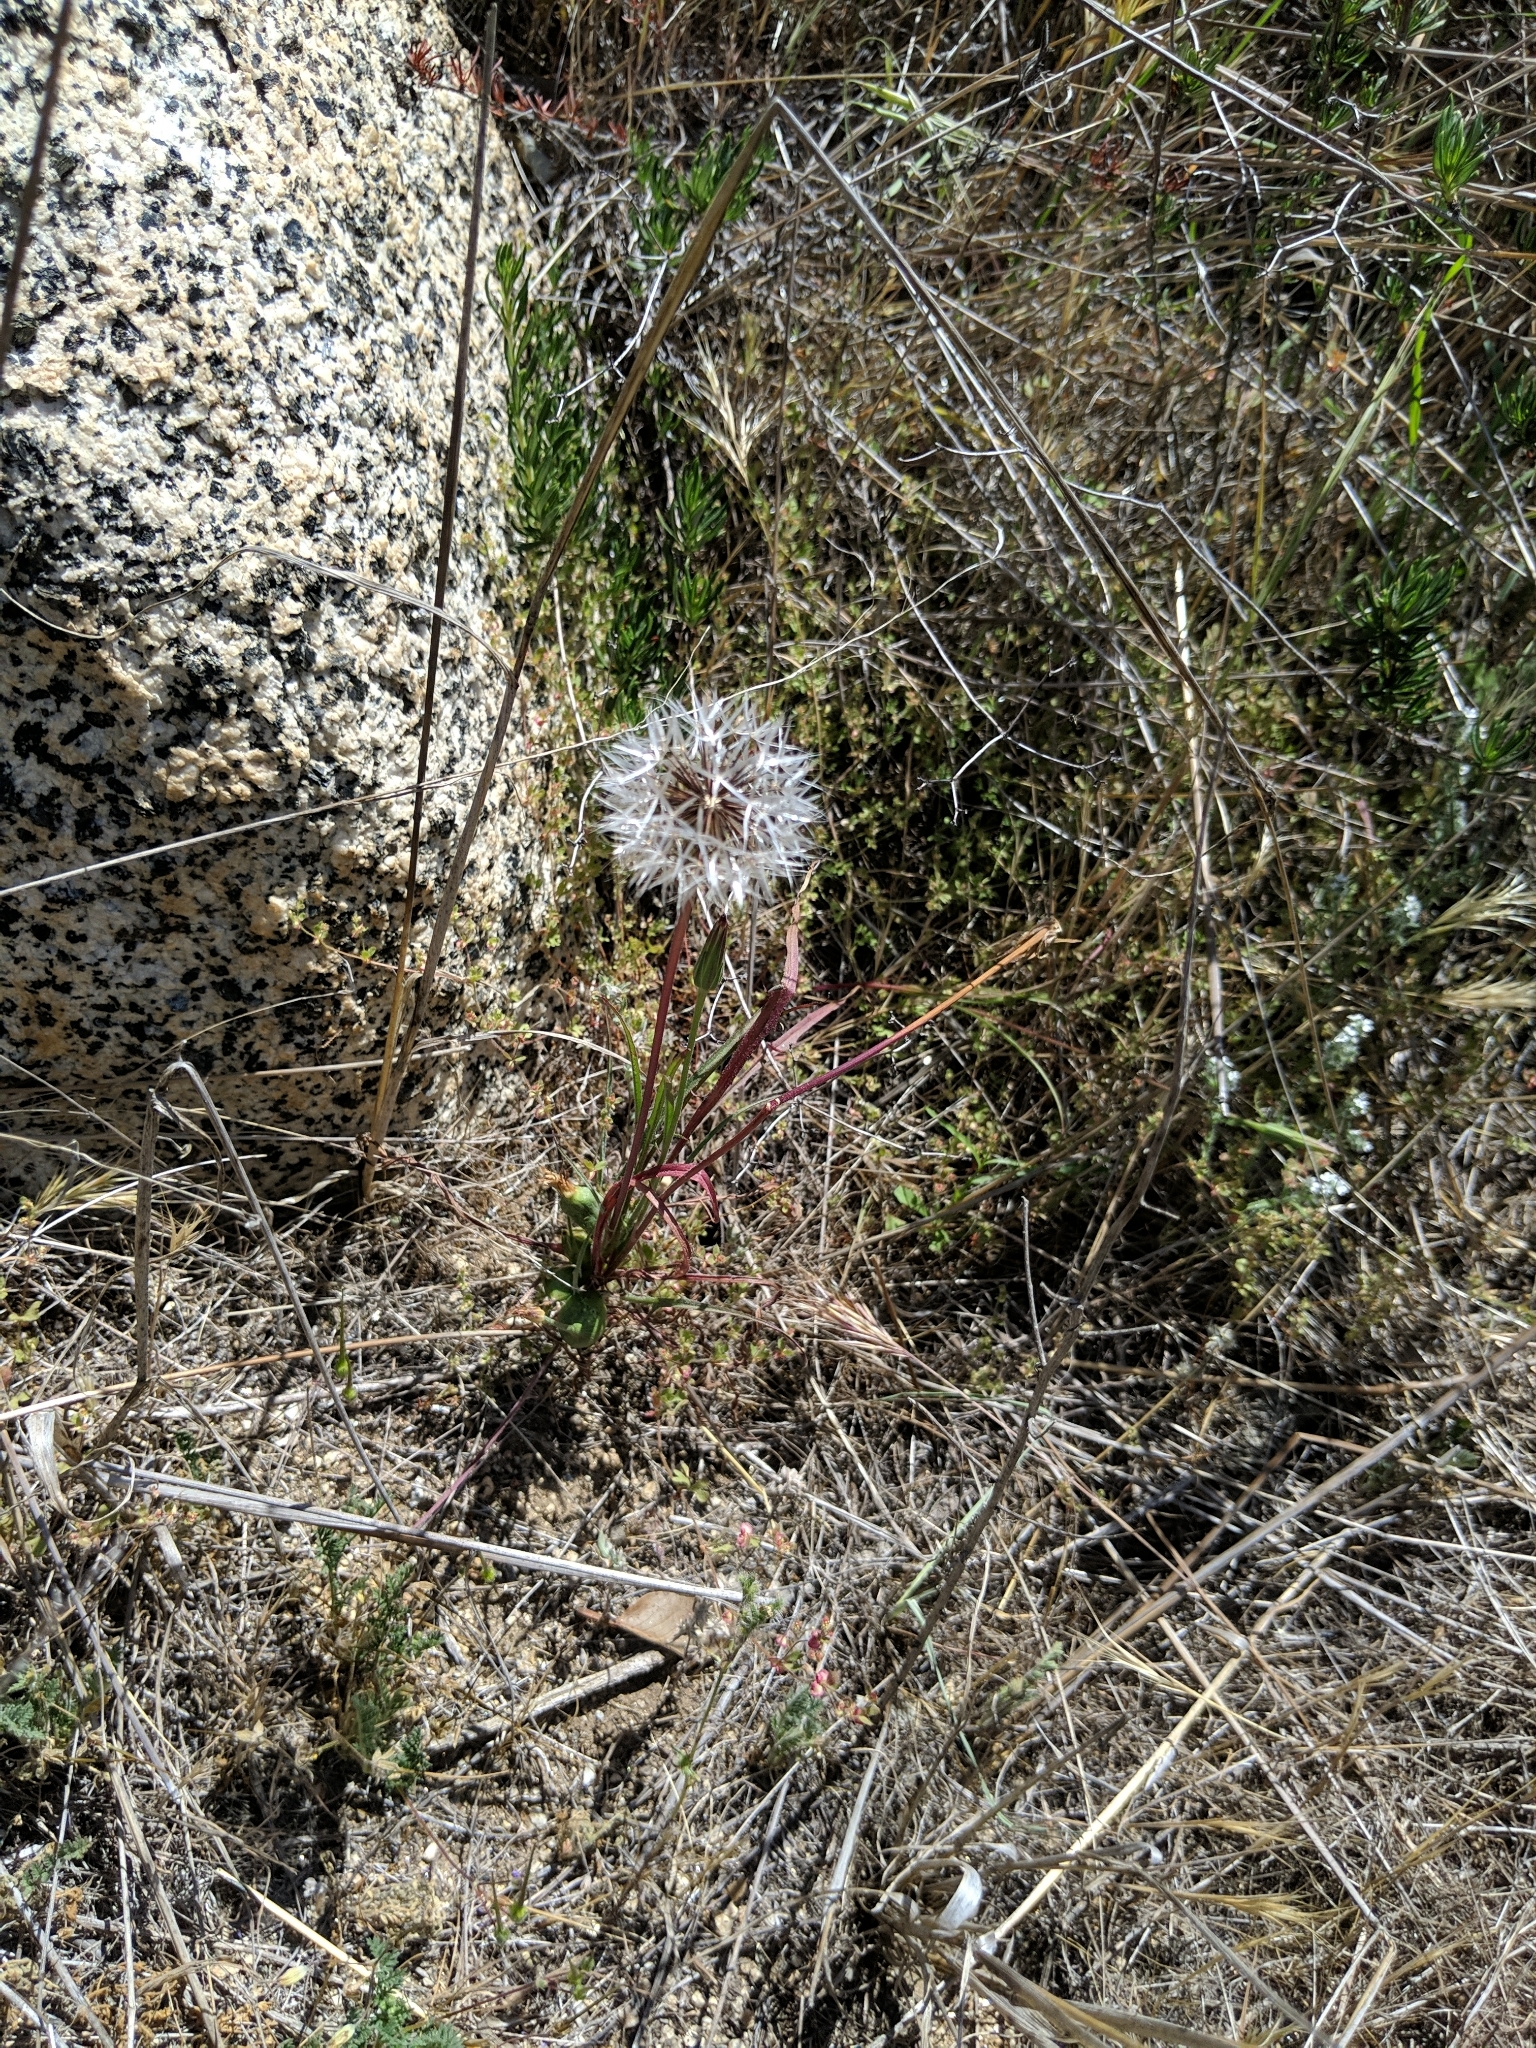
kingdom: Plantae
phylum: Tracheophyta
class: Magnoliopsida
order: Asterales
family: Asteraceae
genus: Microseris
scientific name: Microseris lindleyi
